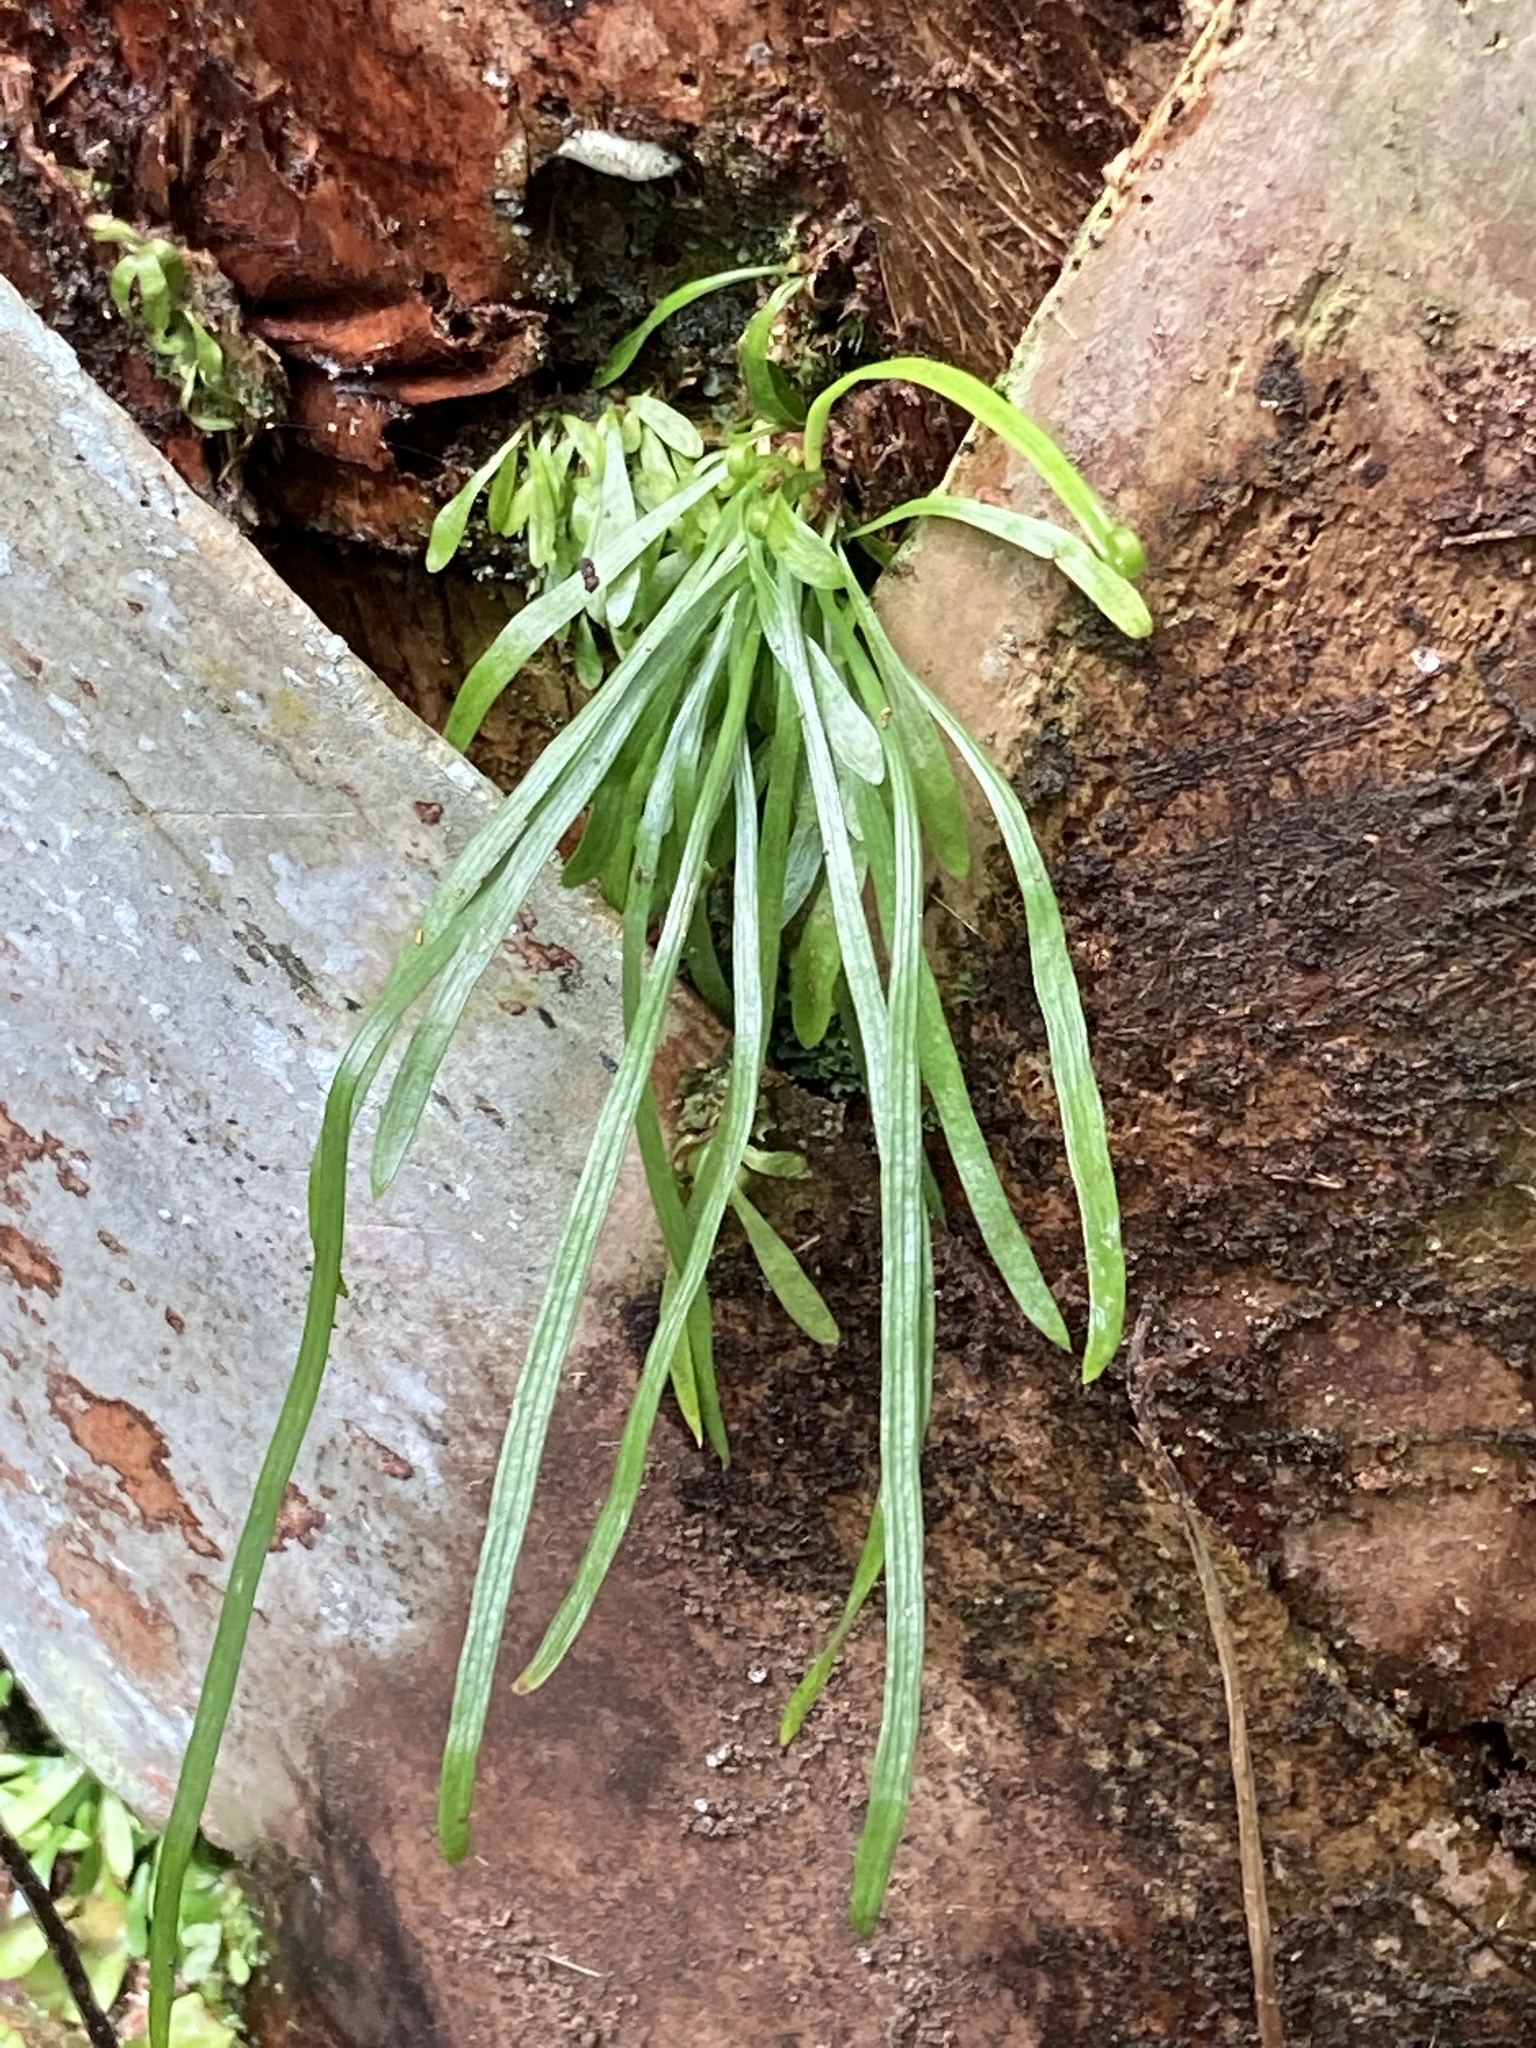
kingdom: Plantae
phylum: Tracheophyta
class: Polypodiopsida
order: Polypodiales
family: Pteridaceae
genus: Vittaria
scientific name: Vittaria lineata
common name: Shoestring fern
